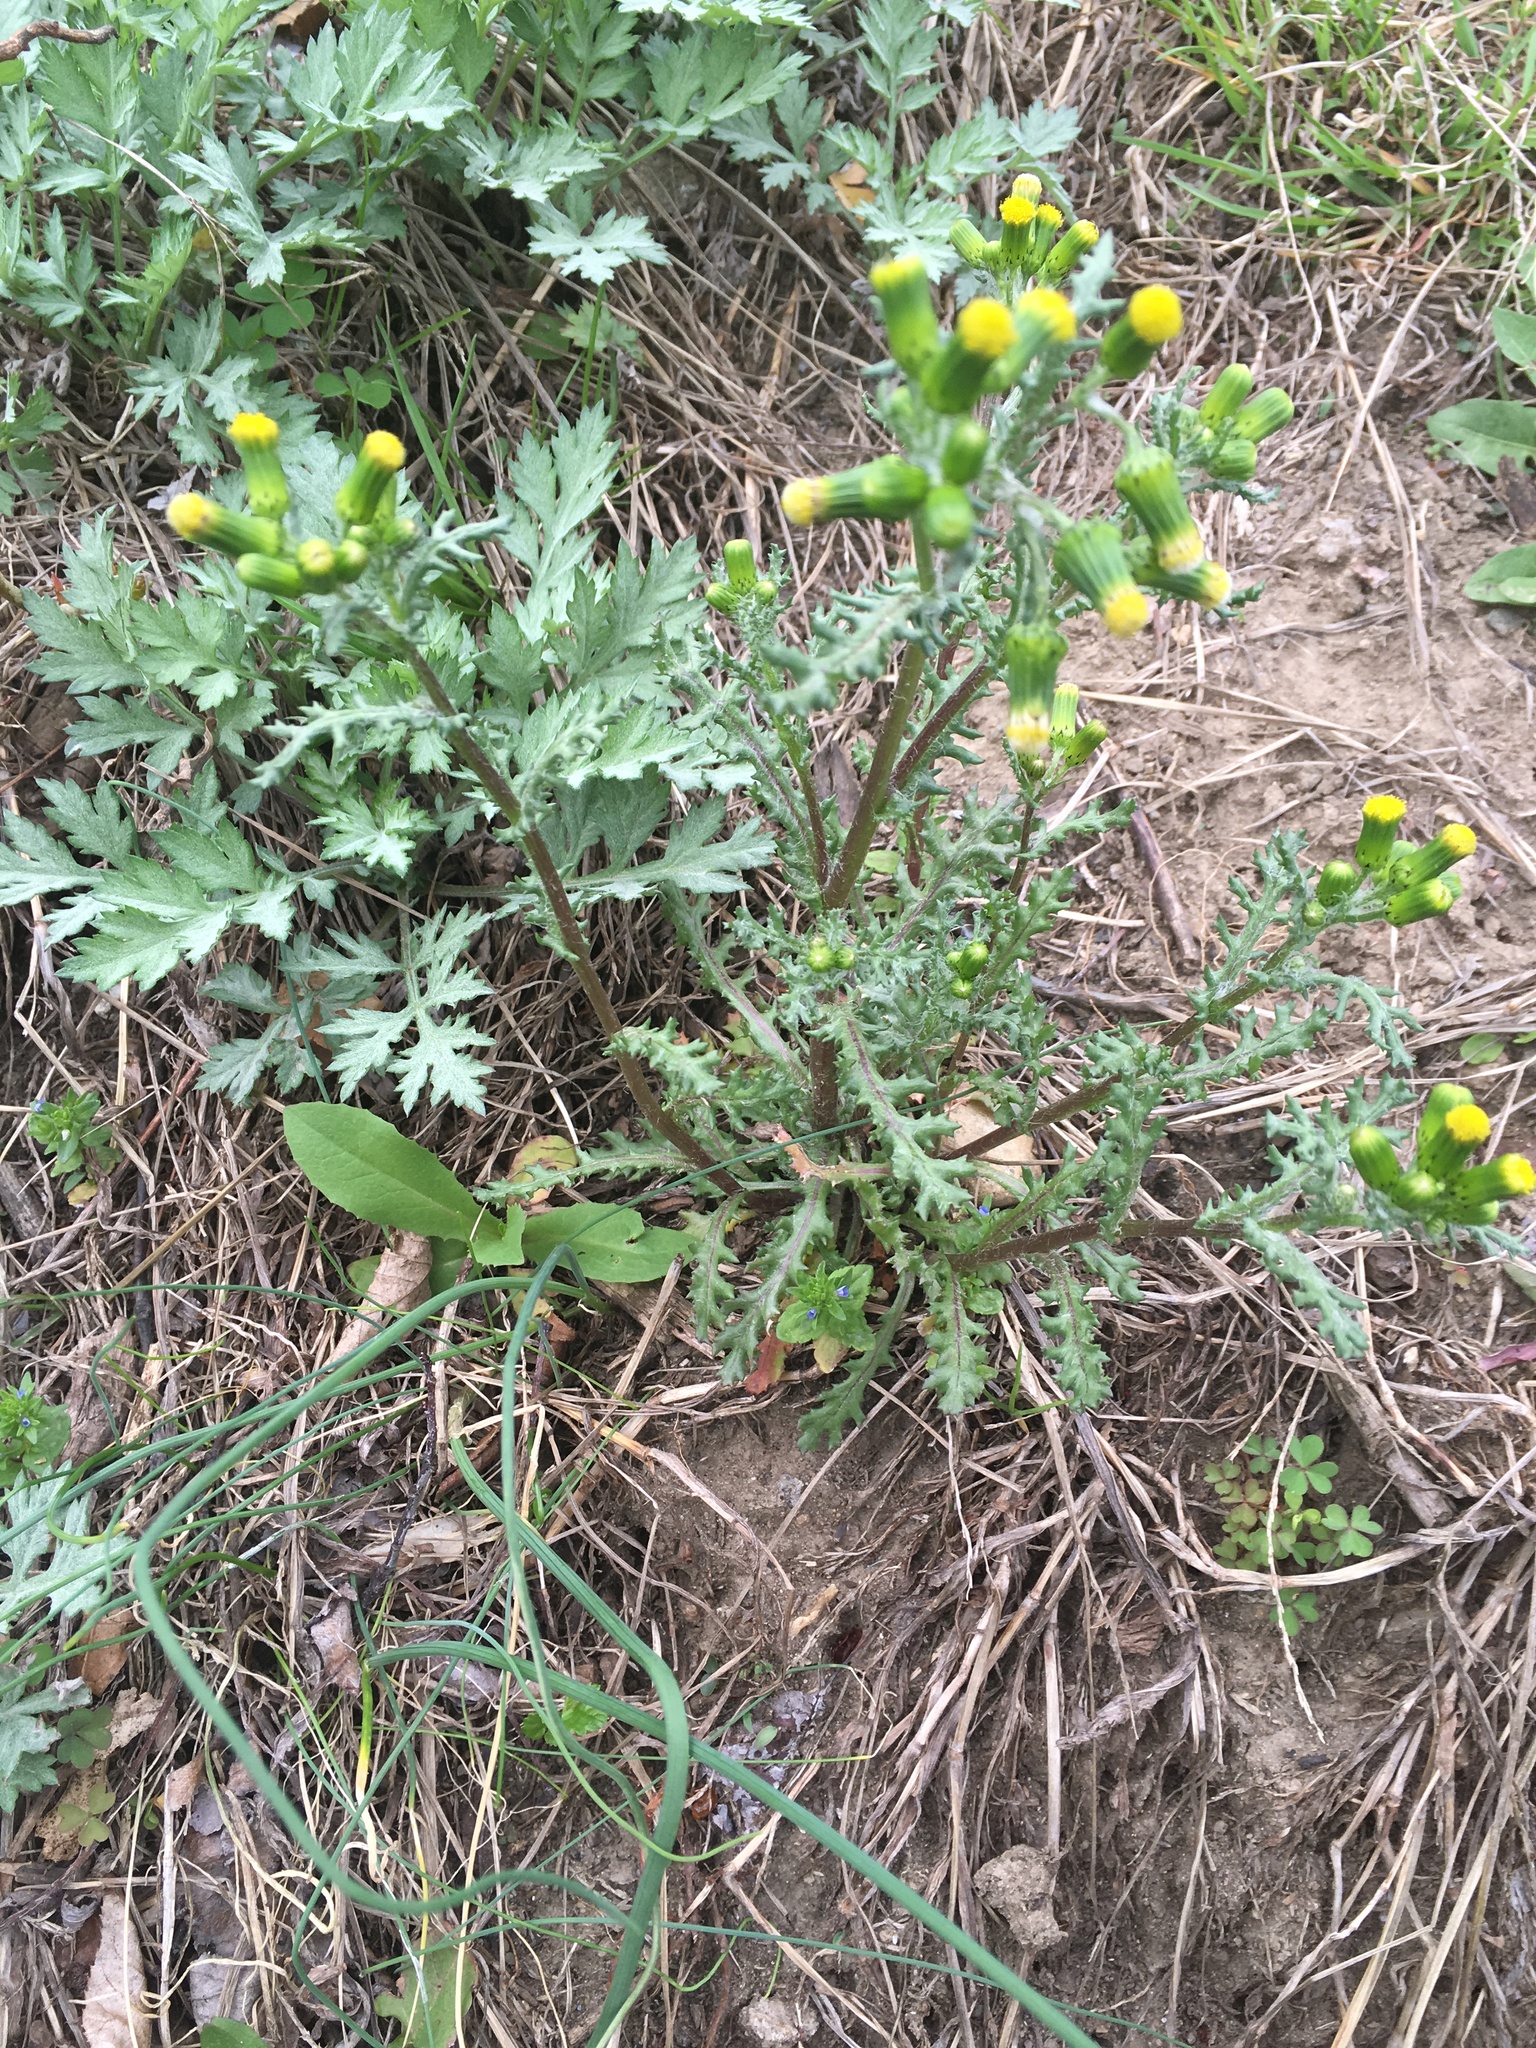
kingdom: Plantae
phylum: Tracheophyta
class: Magnoliopsida
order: Asterales
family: Asteraceae
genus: Senecio
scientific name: Senecio vulgaris
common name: Old-man-in-the-spring
